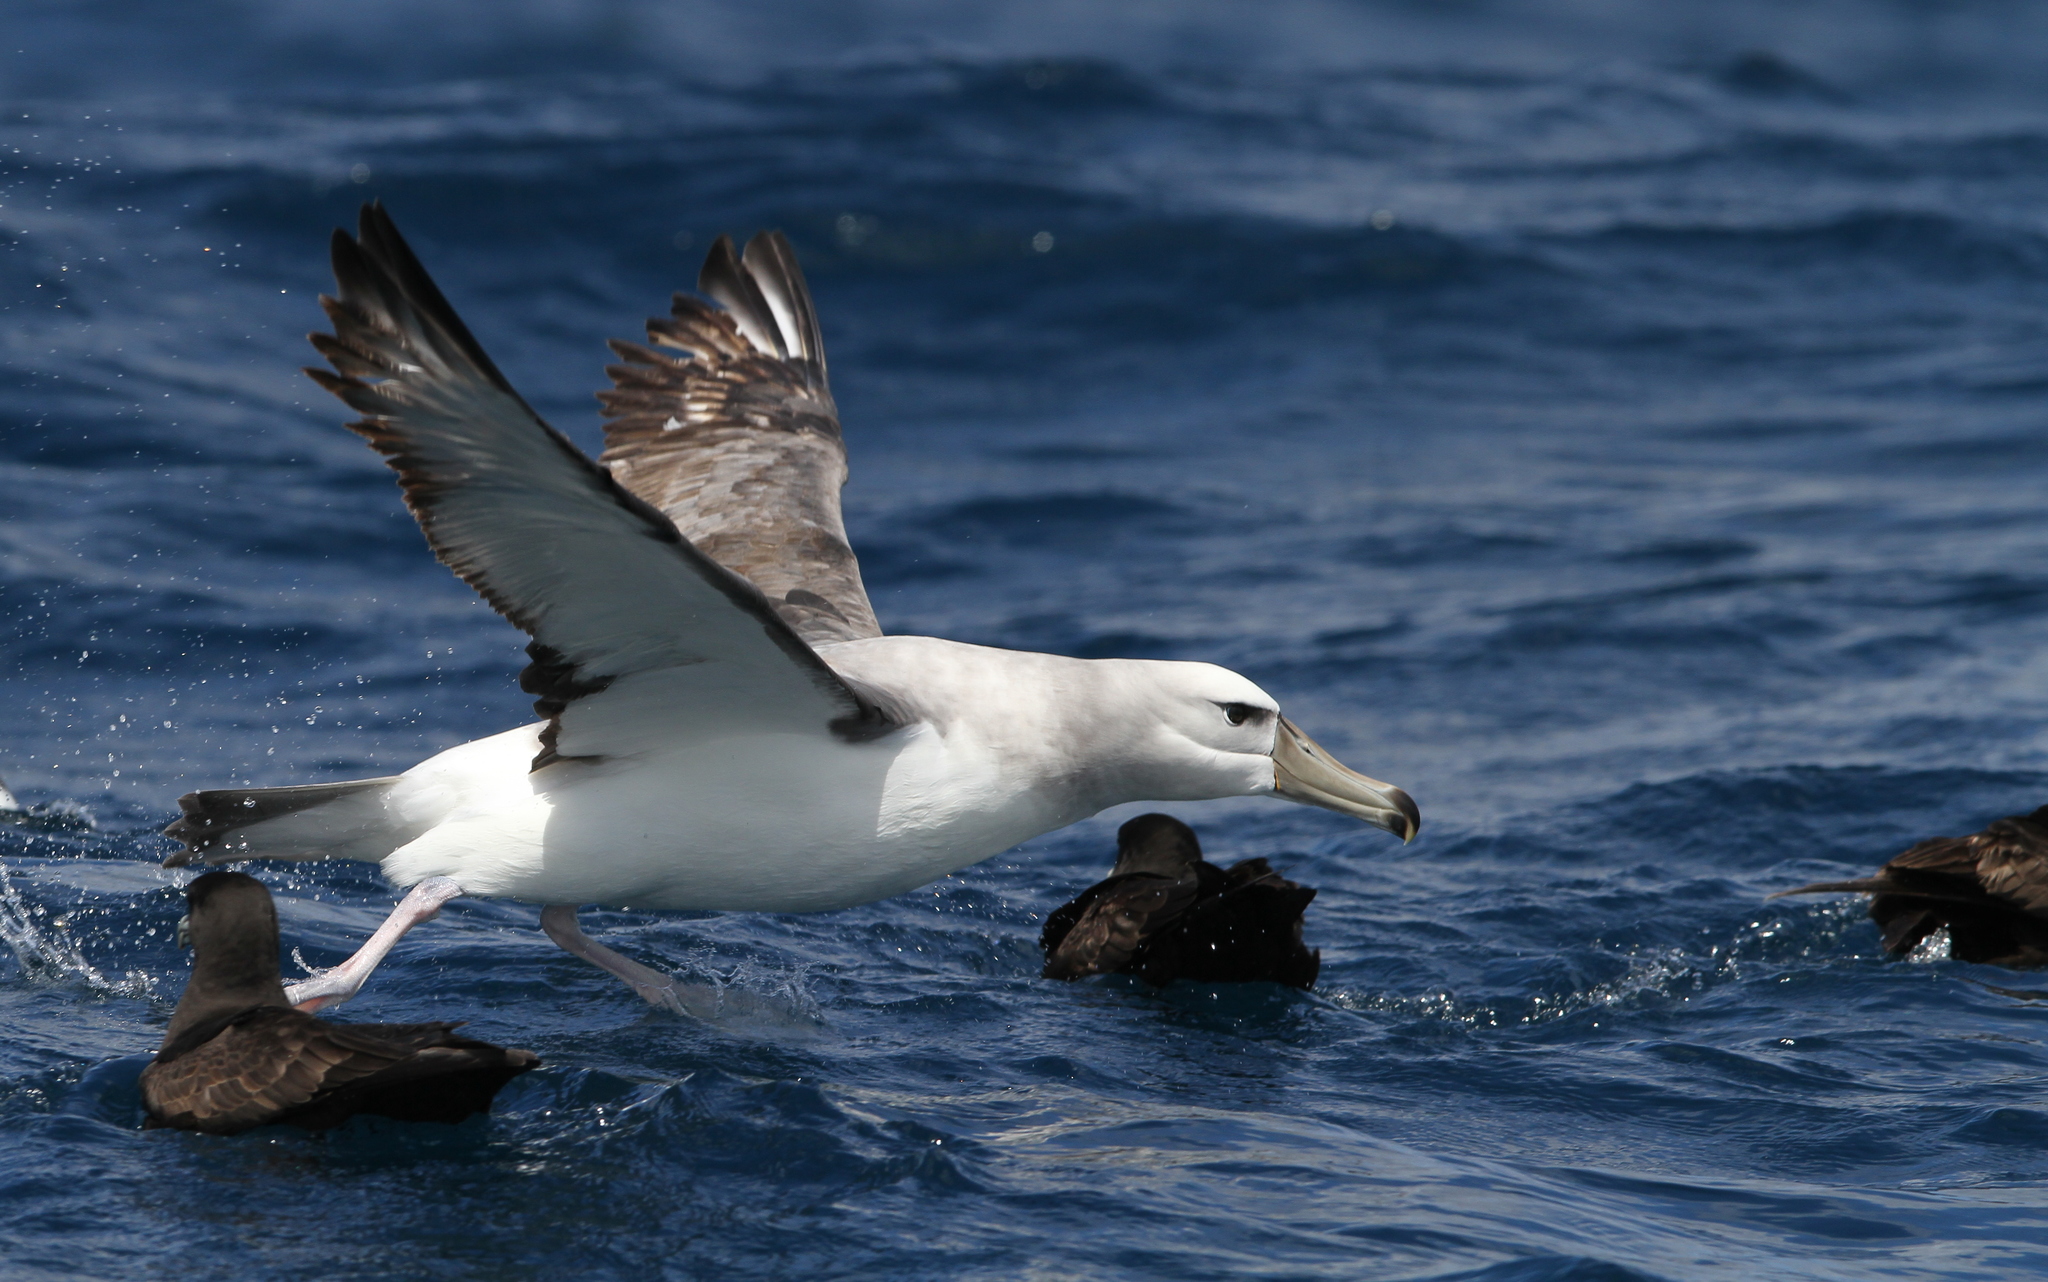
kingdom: Animalia
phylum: Chordata
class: Aves
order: Procellariiformes
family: Diomedeidae
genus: Thalassarche
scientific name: Thalassarche cauta
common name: Shy albatross
